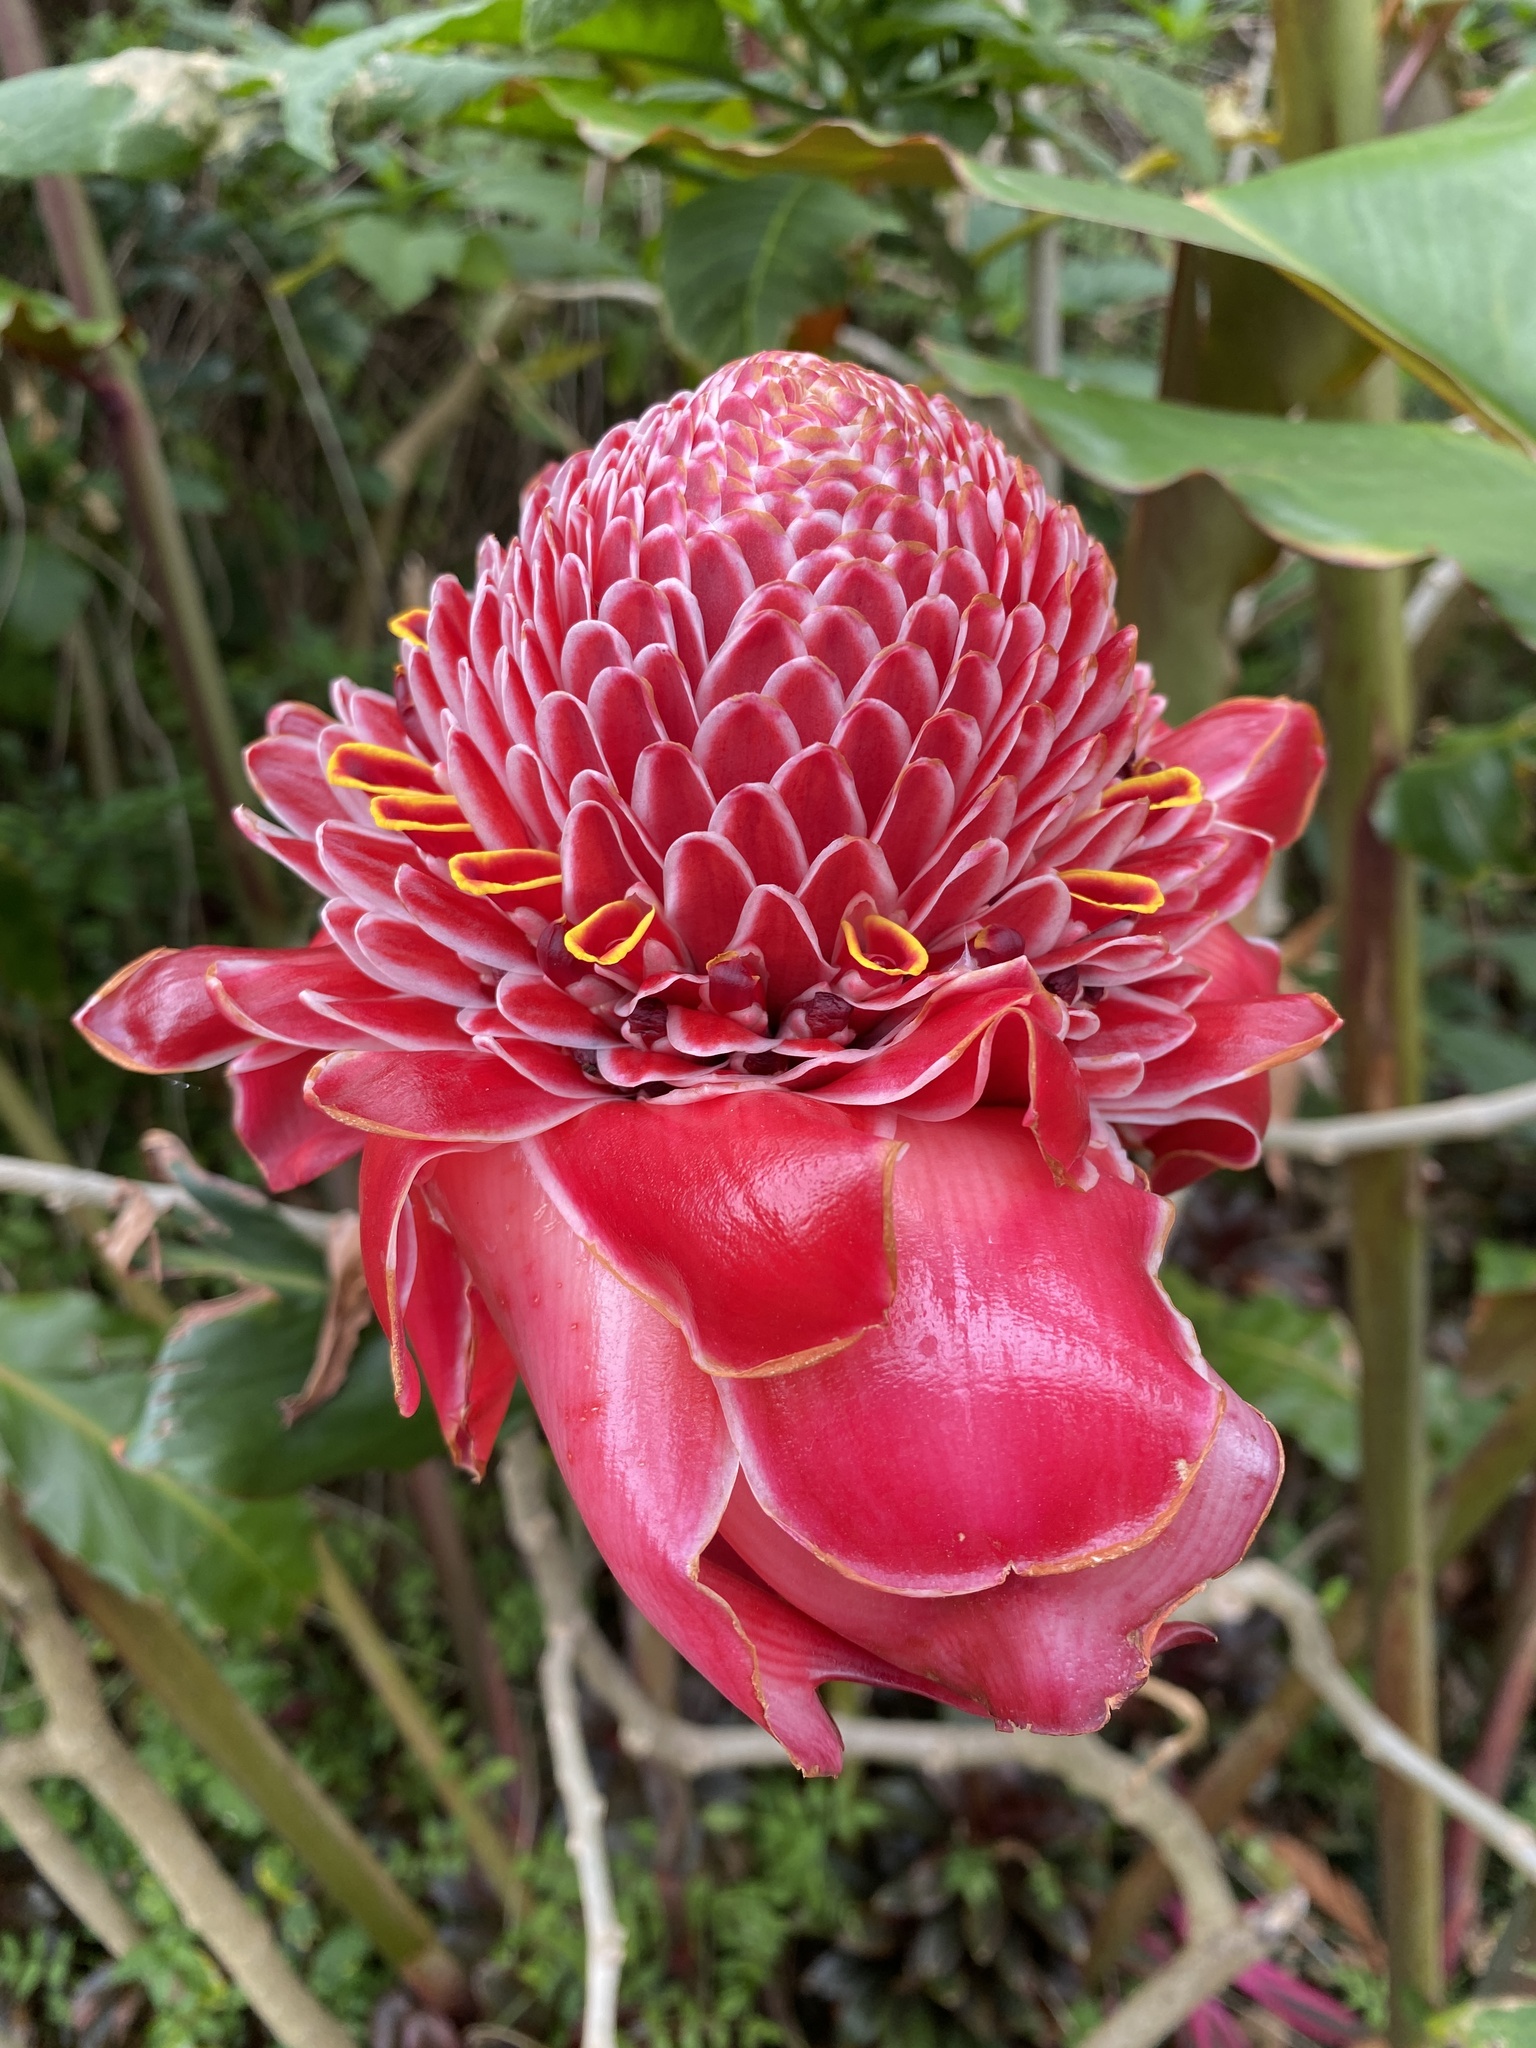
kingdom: Plantae
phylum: Tracheophyta
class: Liliopsida
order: Zingiberales
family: Zingiberaceae
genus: Etlingera
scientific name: Etlingera elatior
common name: Philippine waxflower
